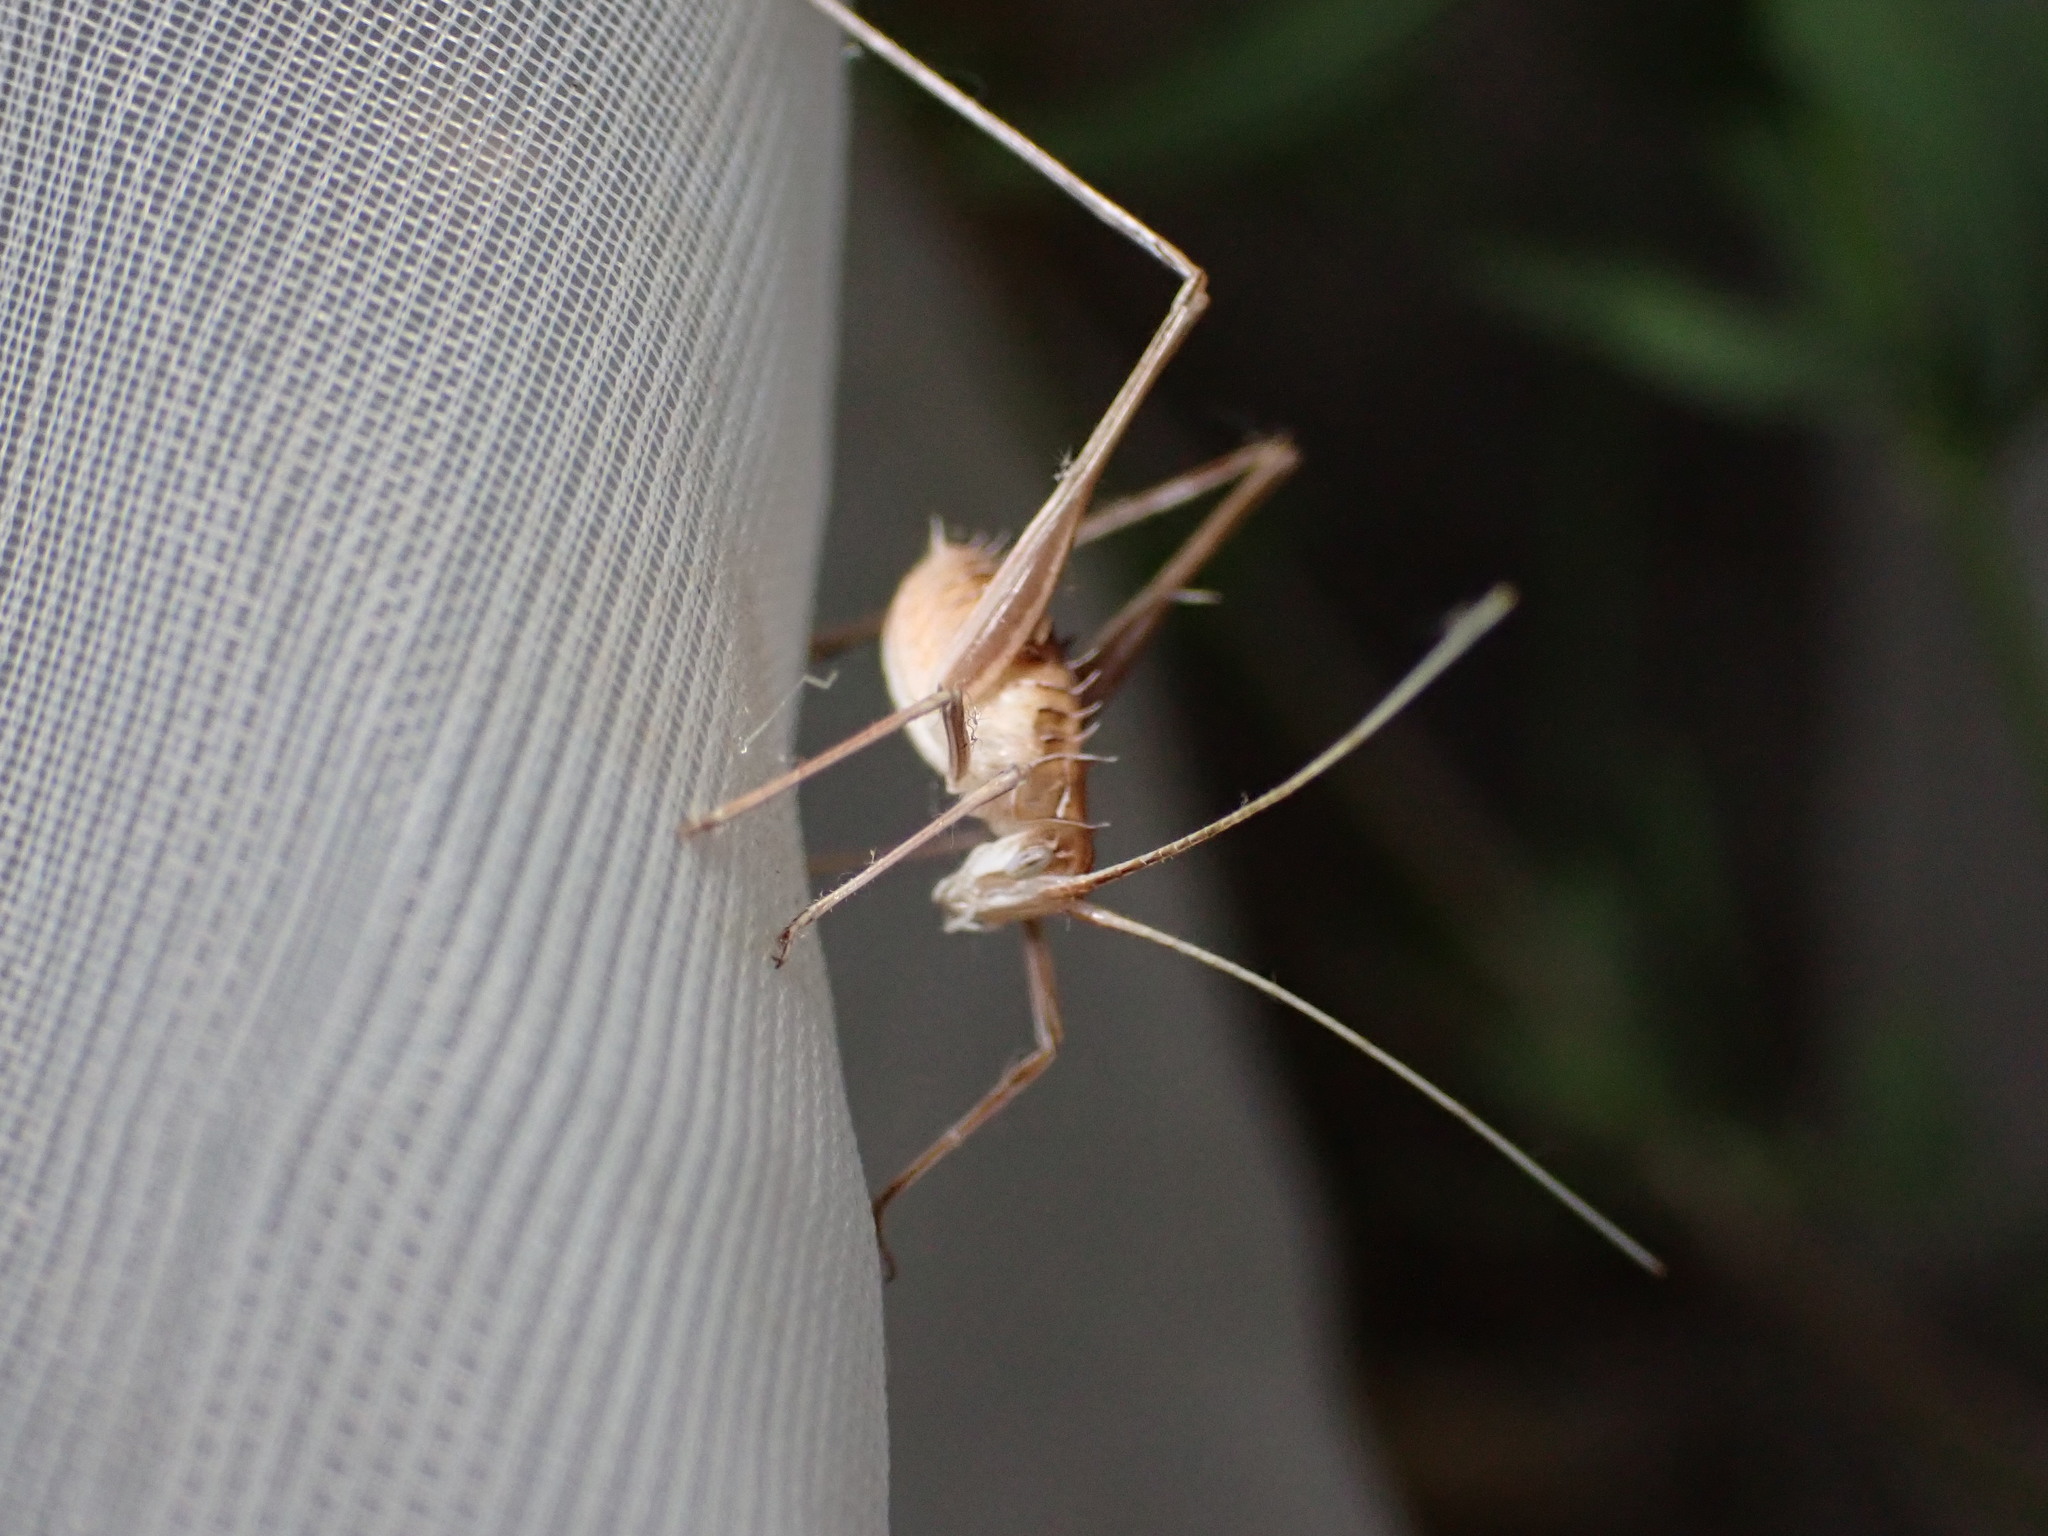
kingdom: Animalia
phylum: Arthropoda
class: Insecta
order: Orthoptera
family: Tettigoniidae
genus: Tylopsis
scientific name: Tylopsis lilifolia
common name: Lily bush-cricket
